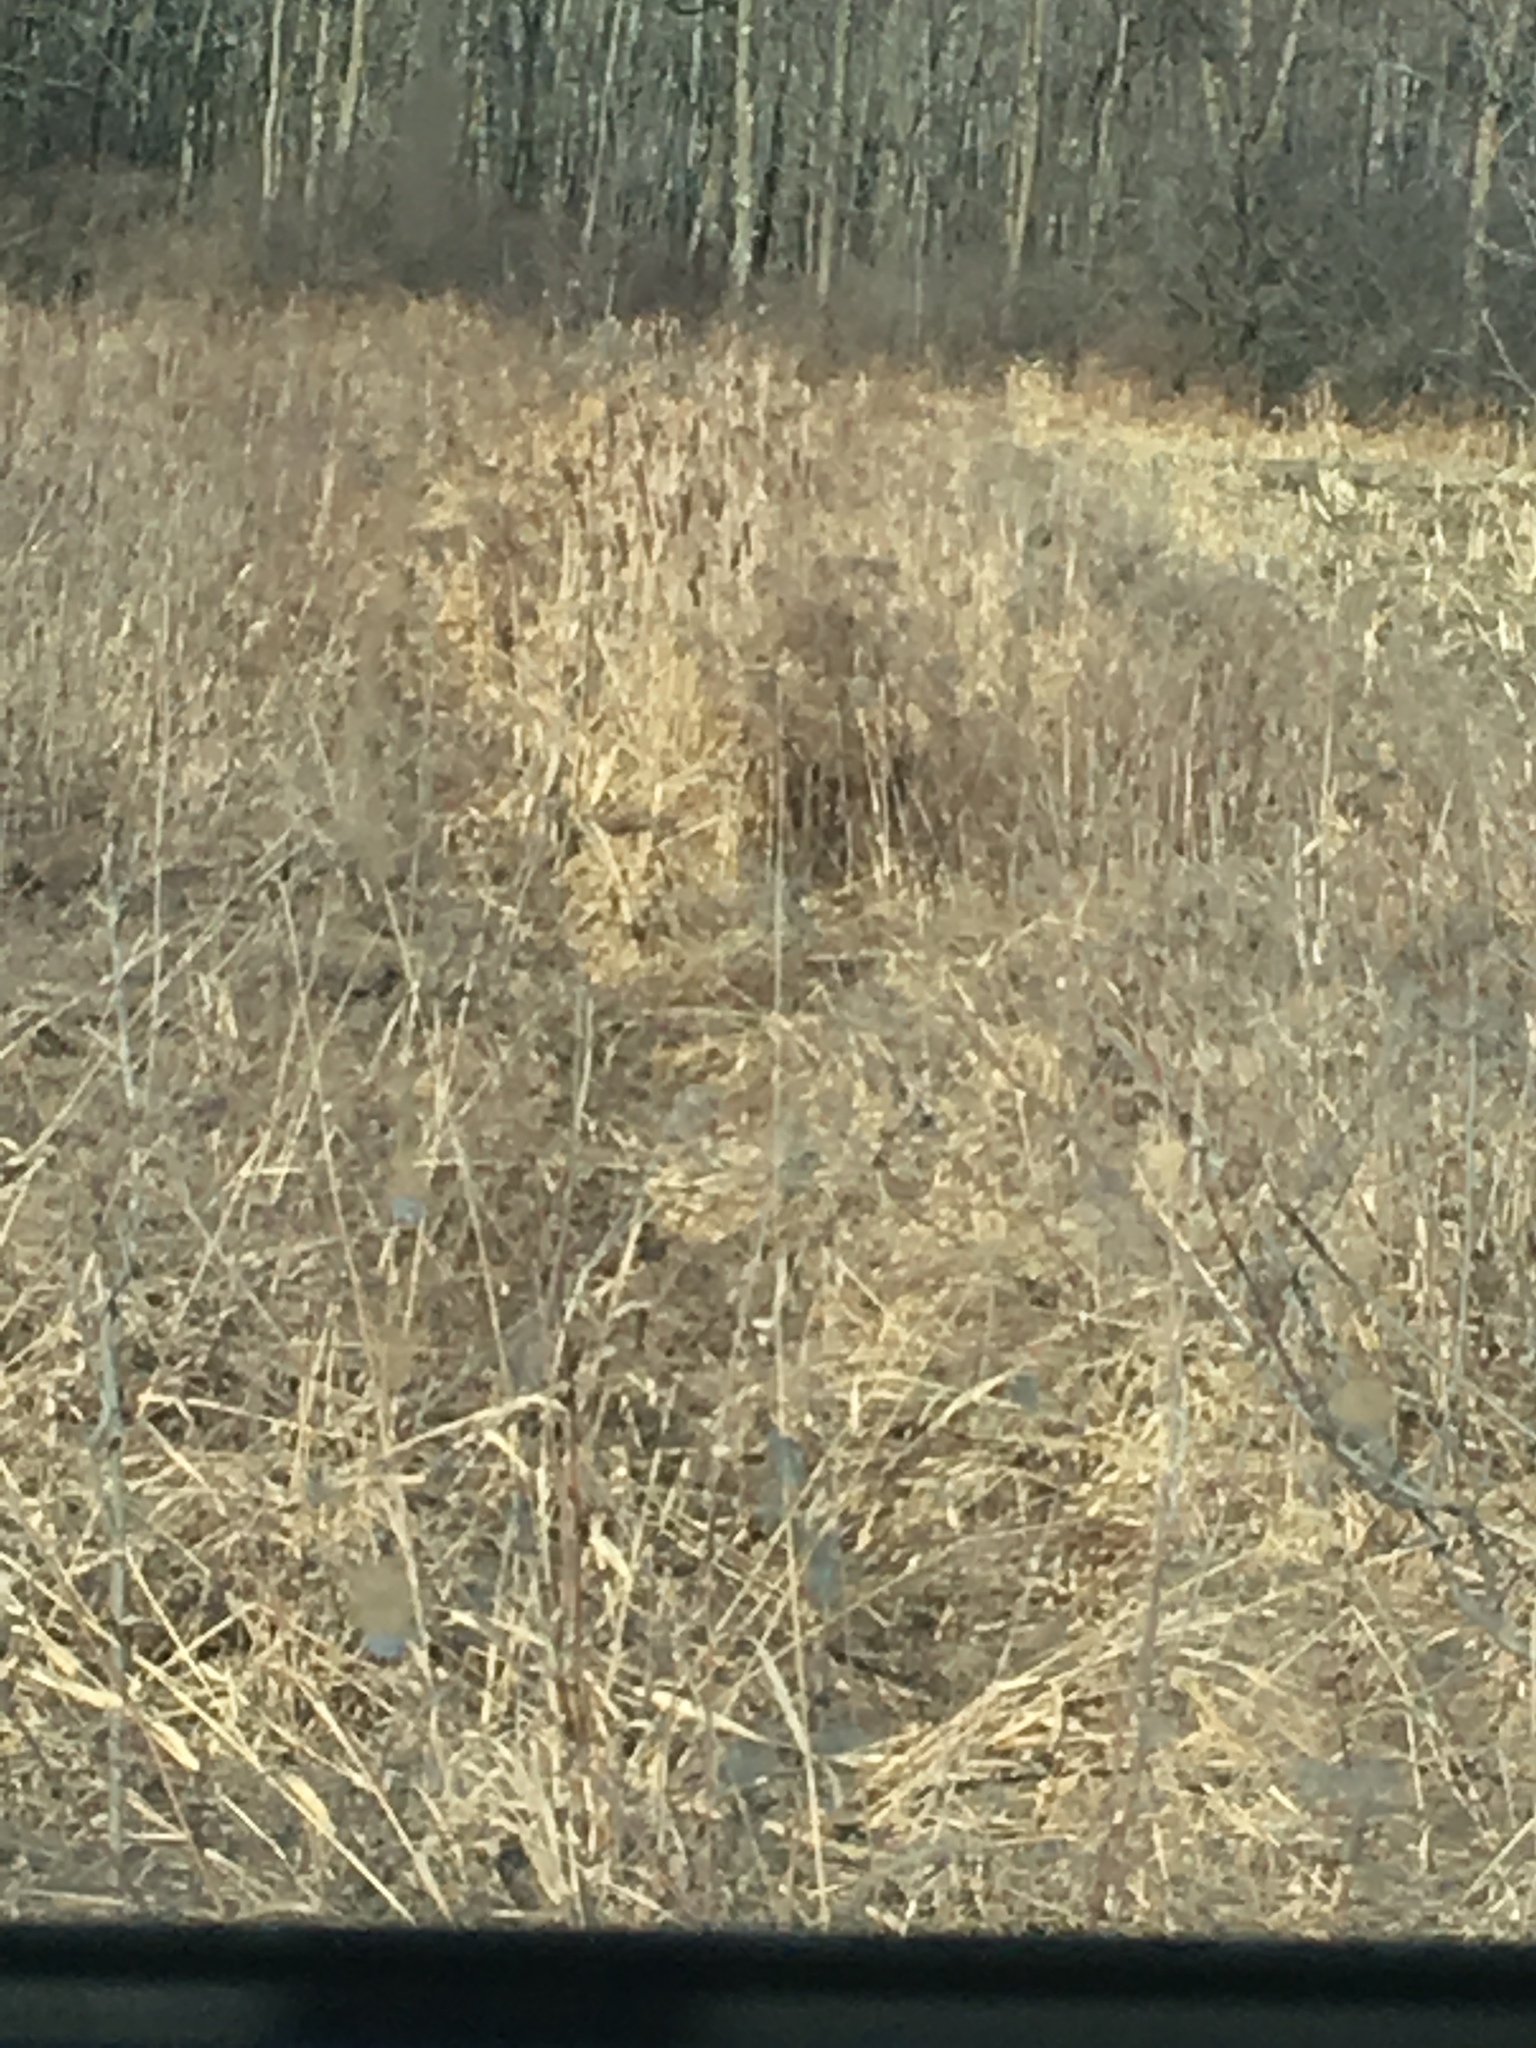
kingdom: Plantae
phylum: Tracheophyta
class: Liliopsida
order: Poales
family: Typhaceae
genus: Typha
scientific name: Typha
